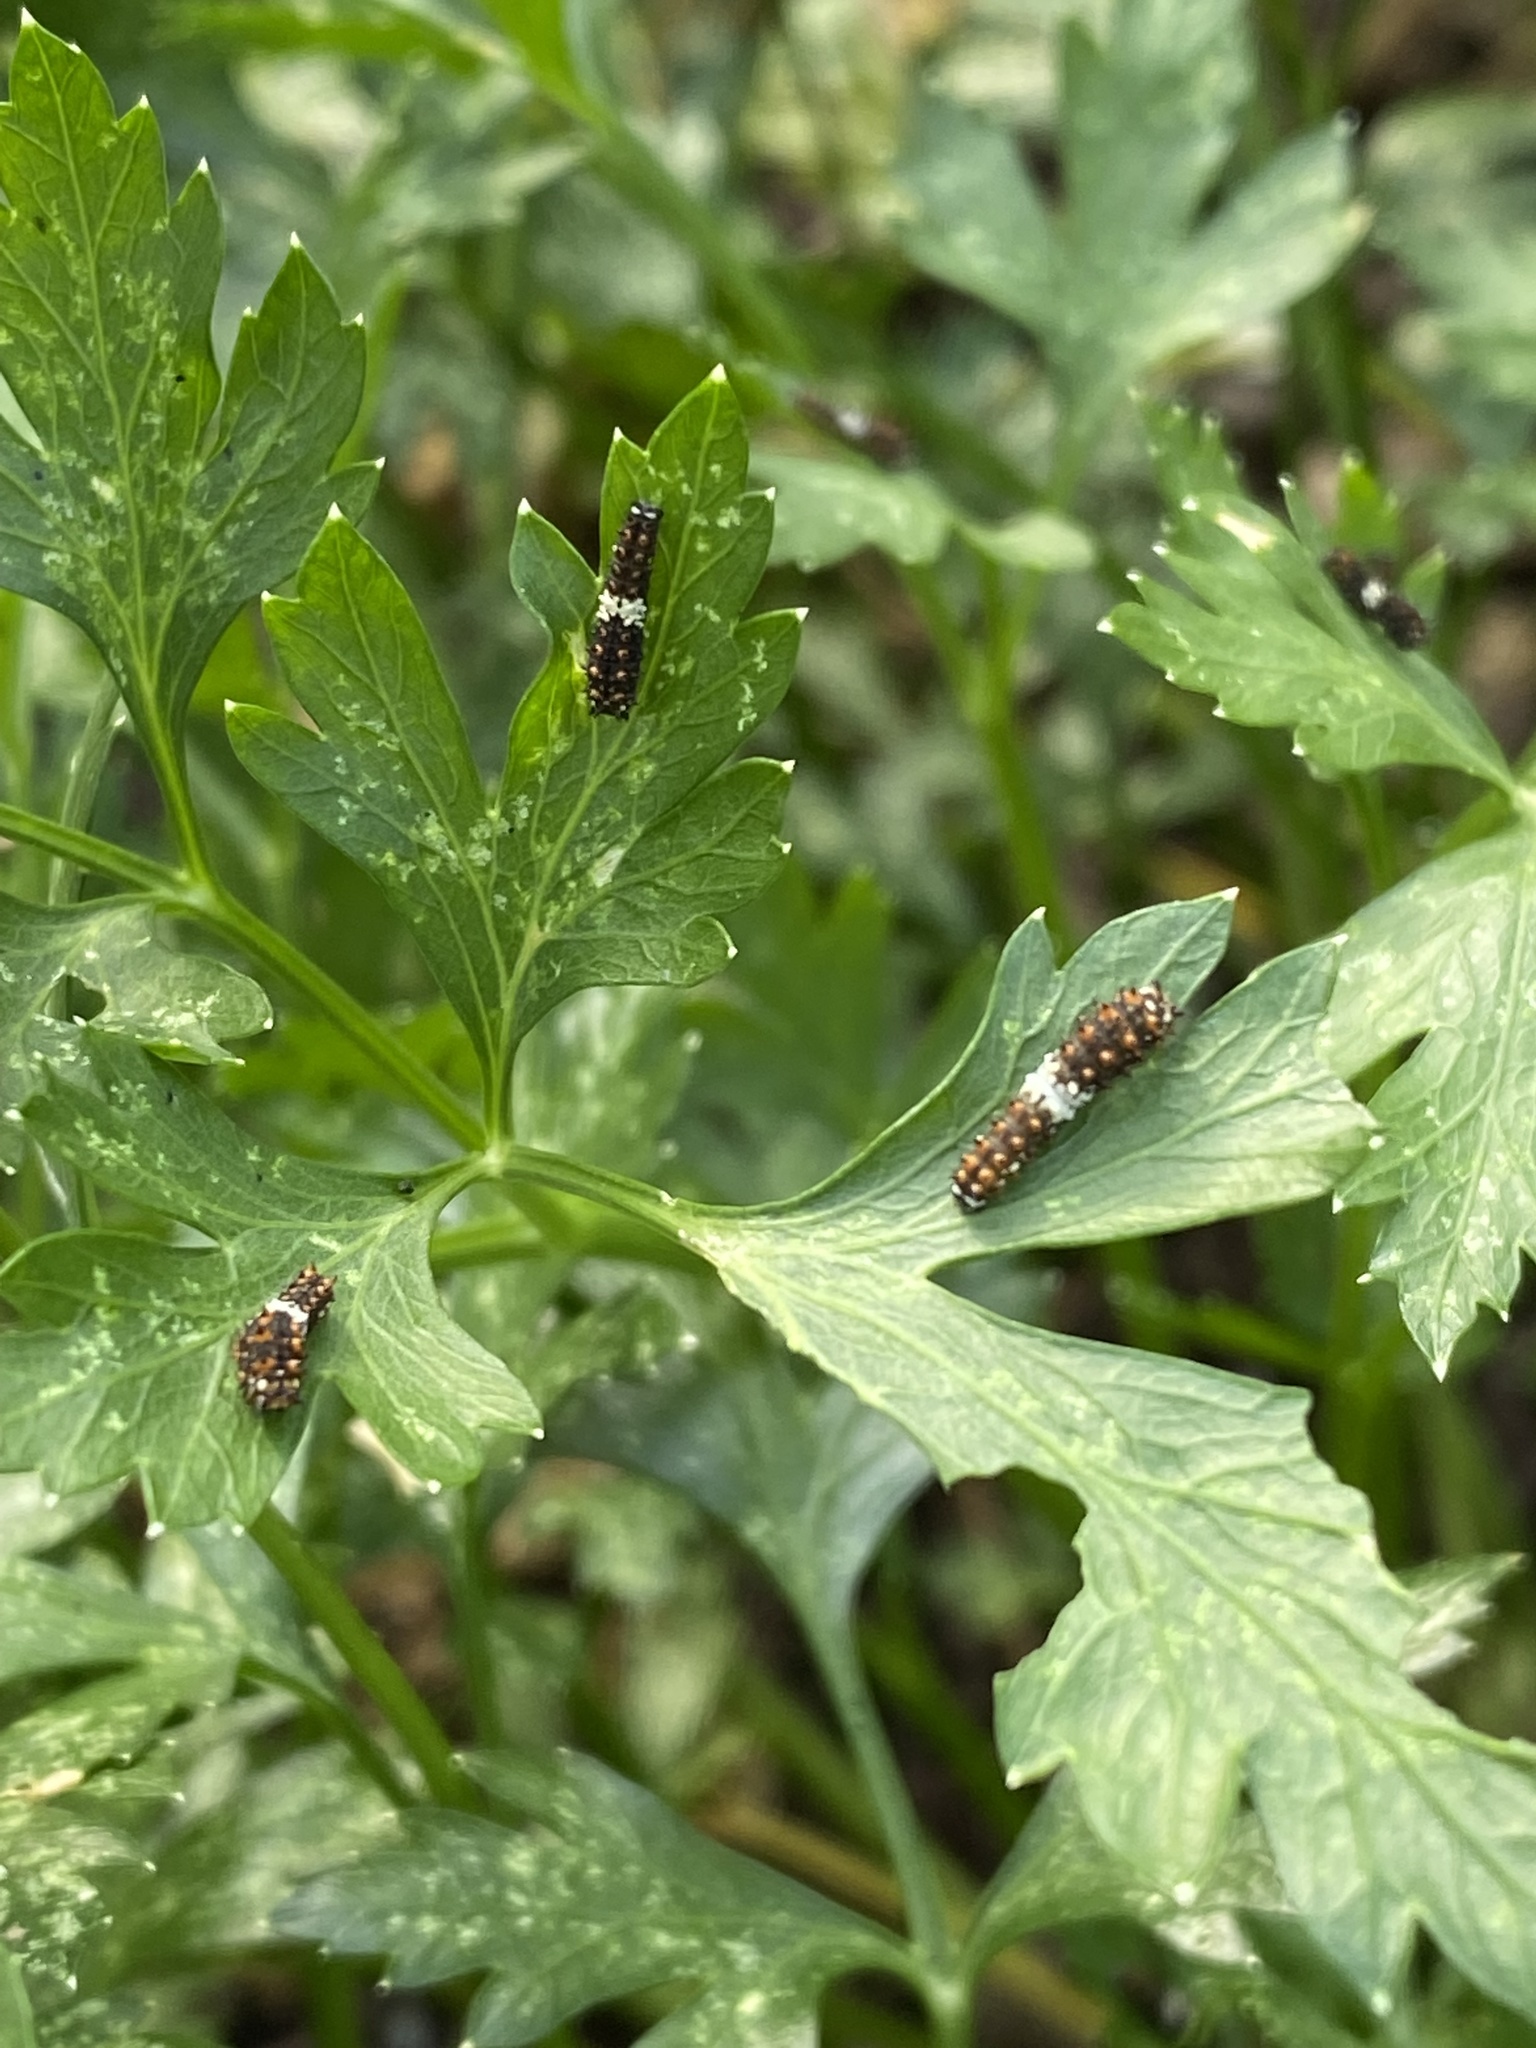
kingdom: Animalia
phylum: Arthropoda
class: Insecta
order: Lepidoptera
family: Papilionidae
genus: Papilio
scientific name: Papilio polyxenes
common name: Black swallowtail
